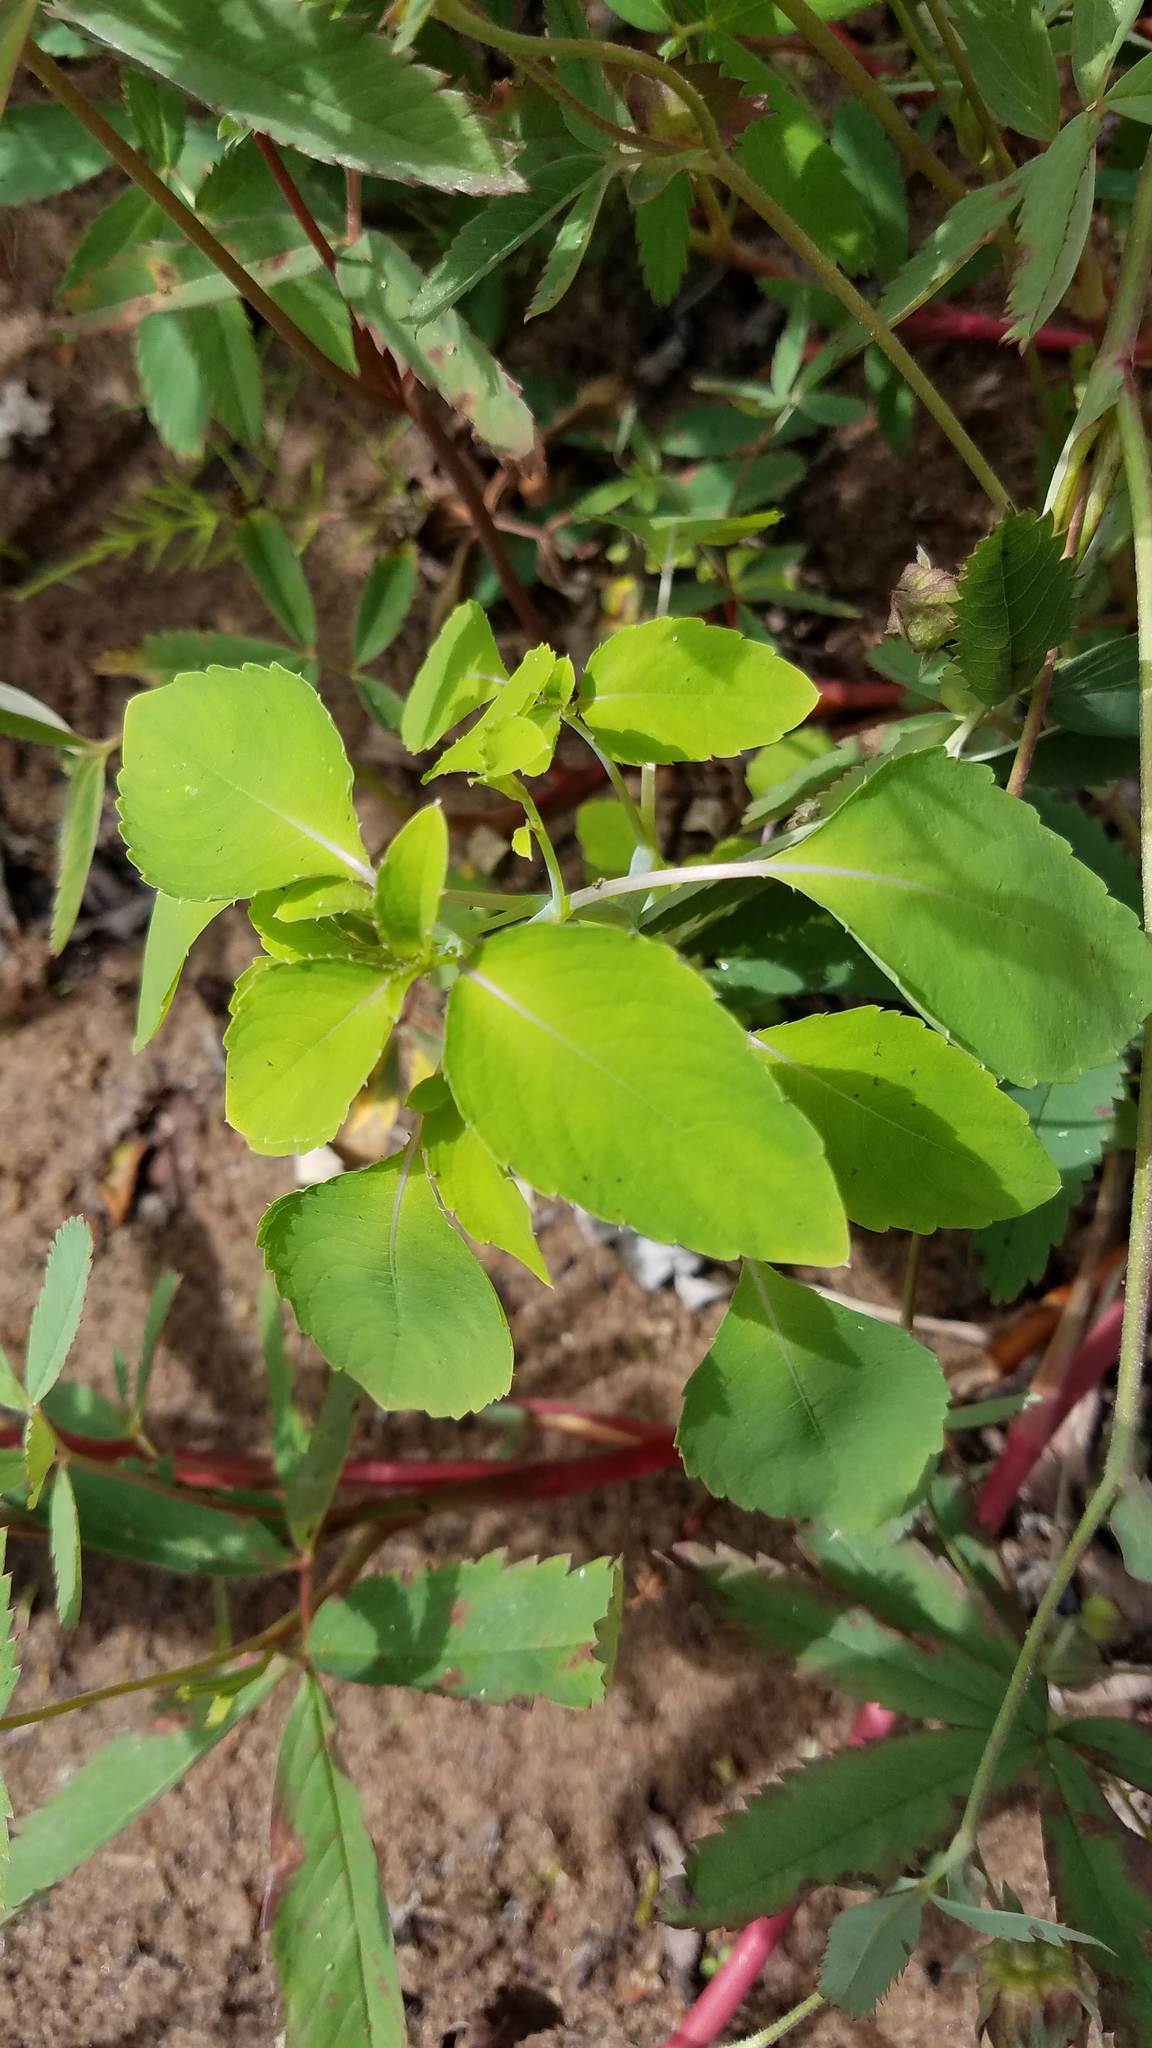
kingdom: Plantae
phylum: Tracheophyta
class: Magnoliopsida
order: Ericales
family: Balsaminaceae
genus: Impatiens
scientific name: Impatiens capensis
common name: Orange balsam
